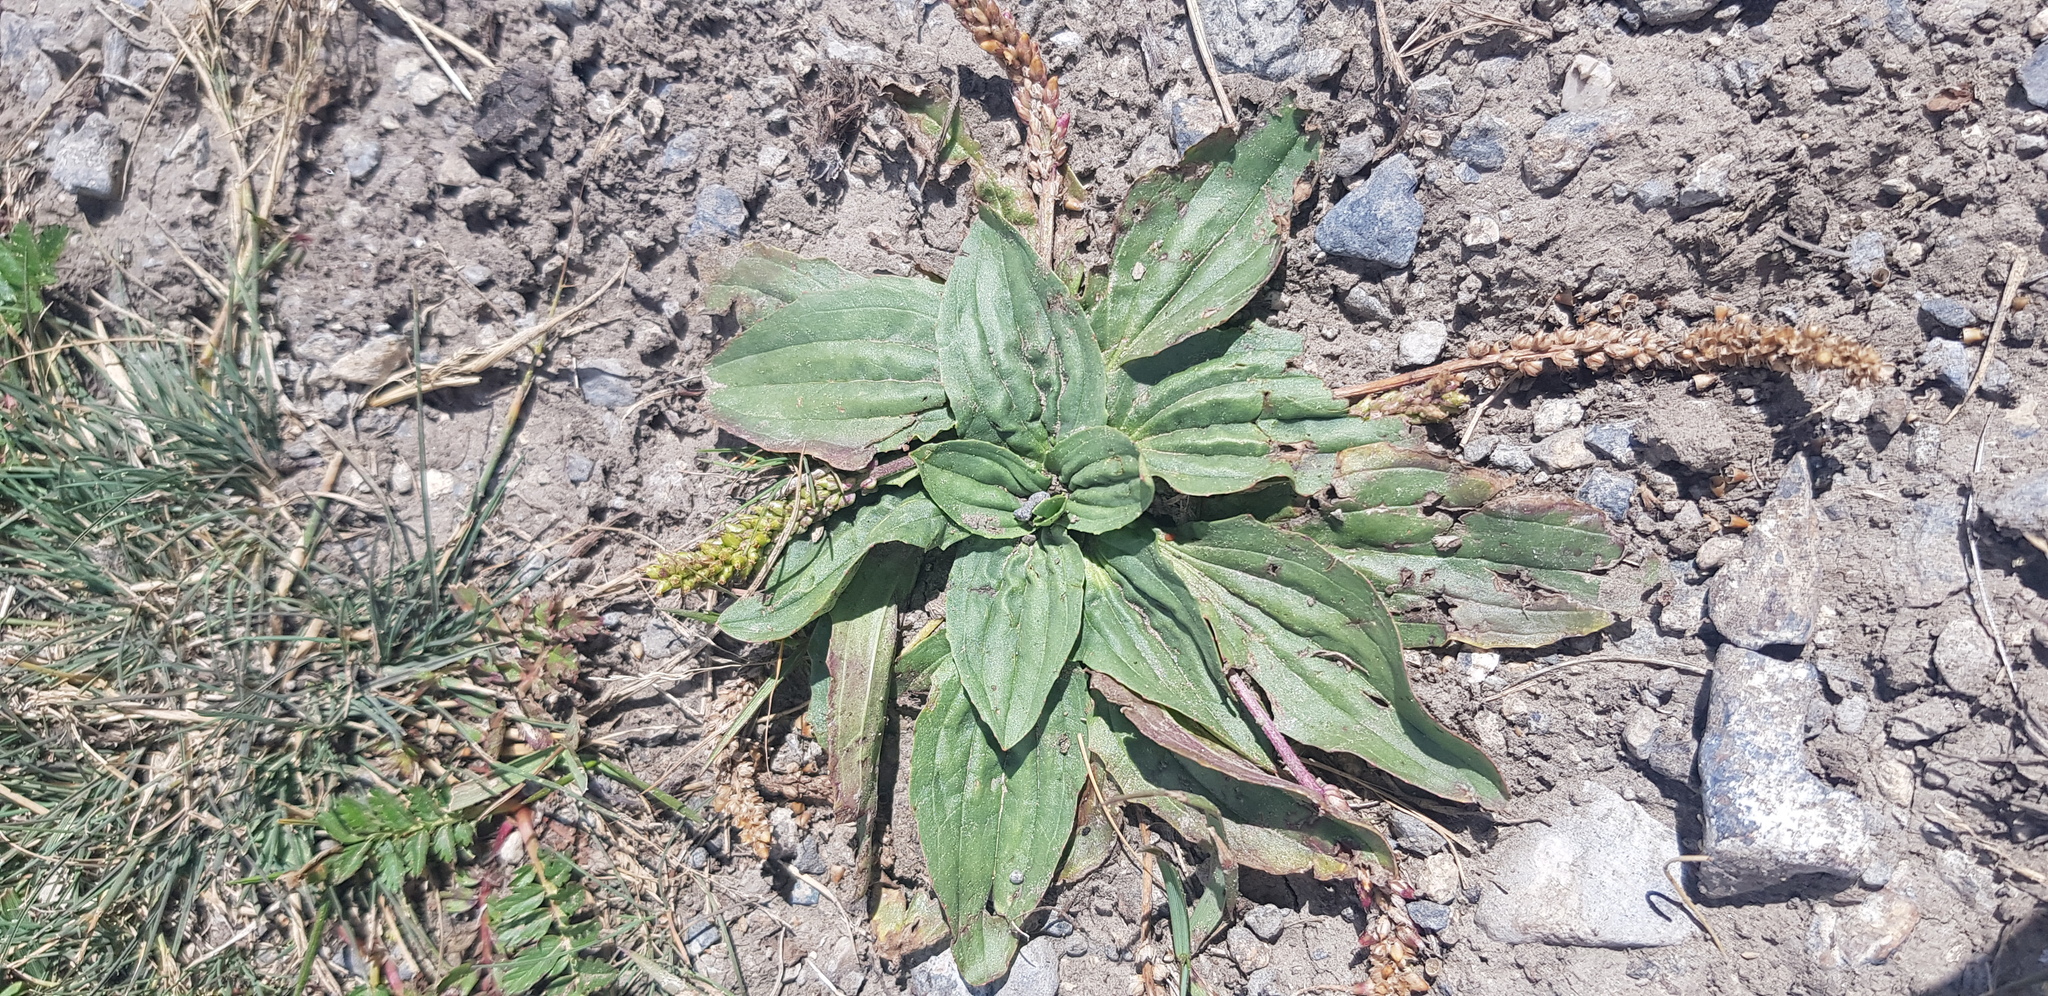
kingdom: Plantae
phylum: Tracheophyta
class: Magnoliopsida
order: Lamiales
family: Plantaginaceae
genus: Plantago
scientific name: Plantago depressa
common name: Depressed plantain
